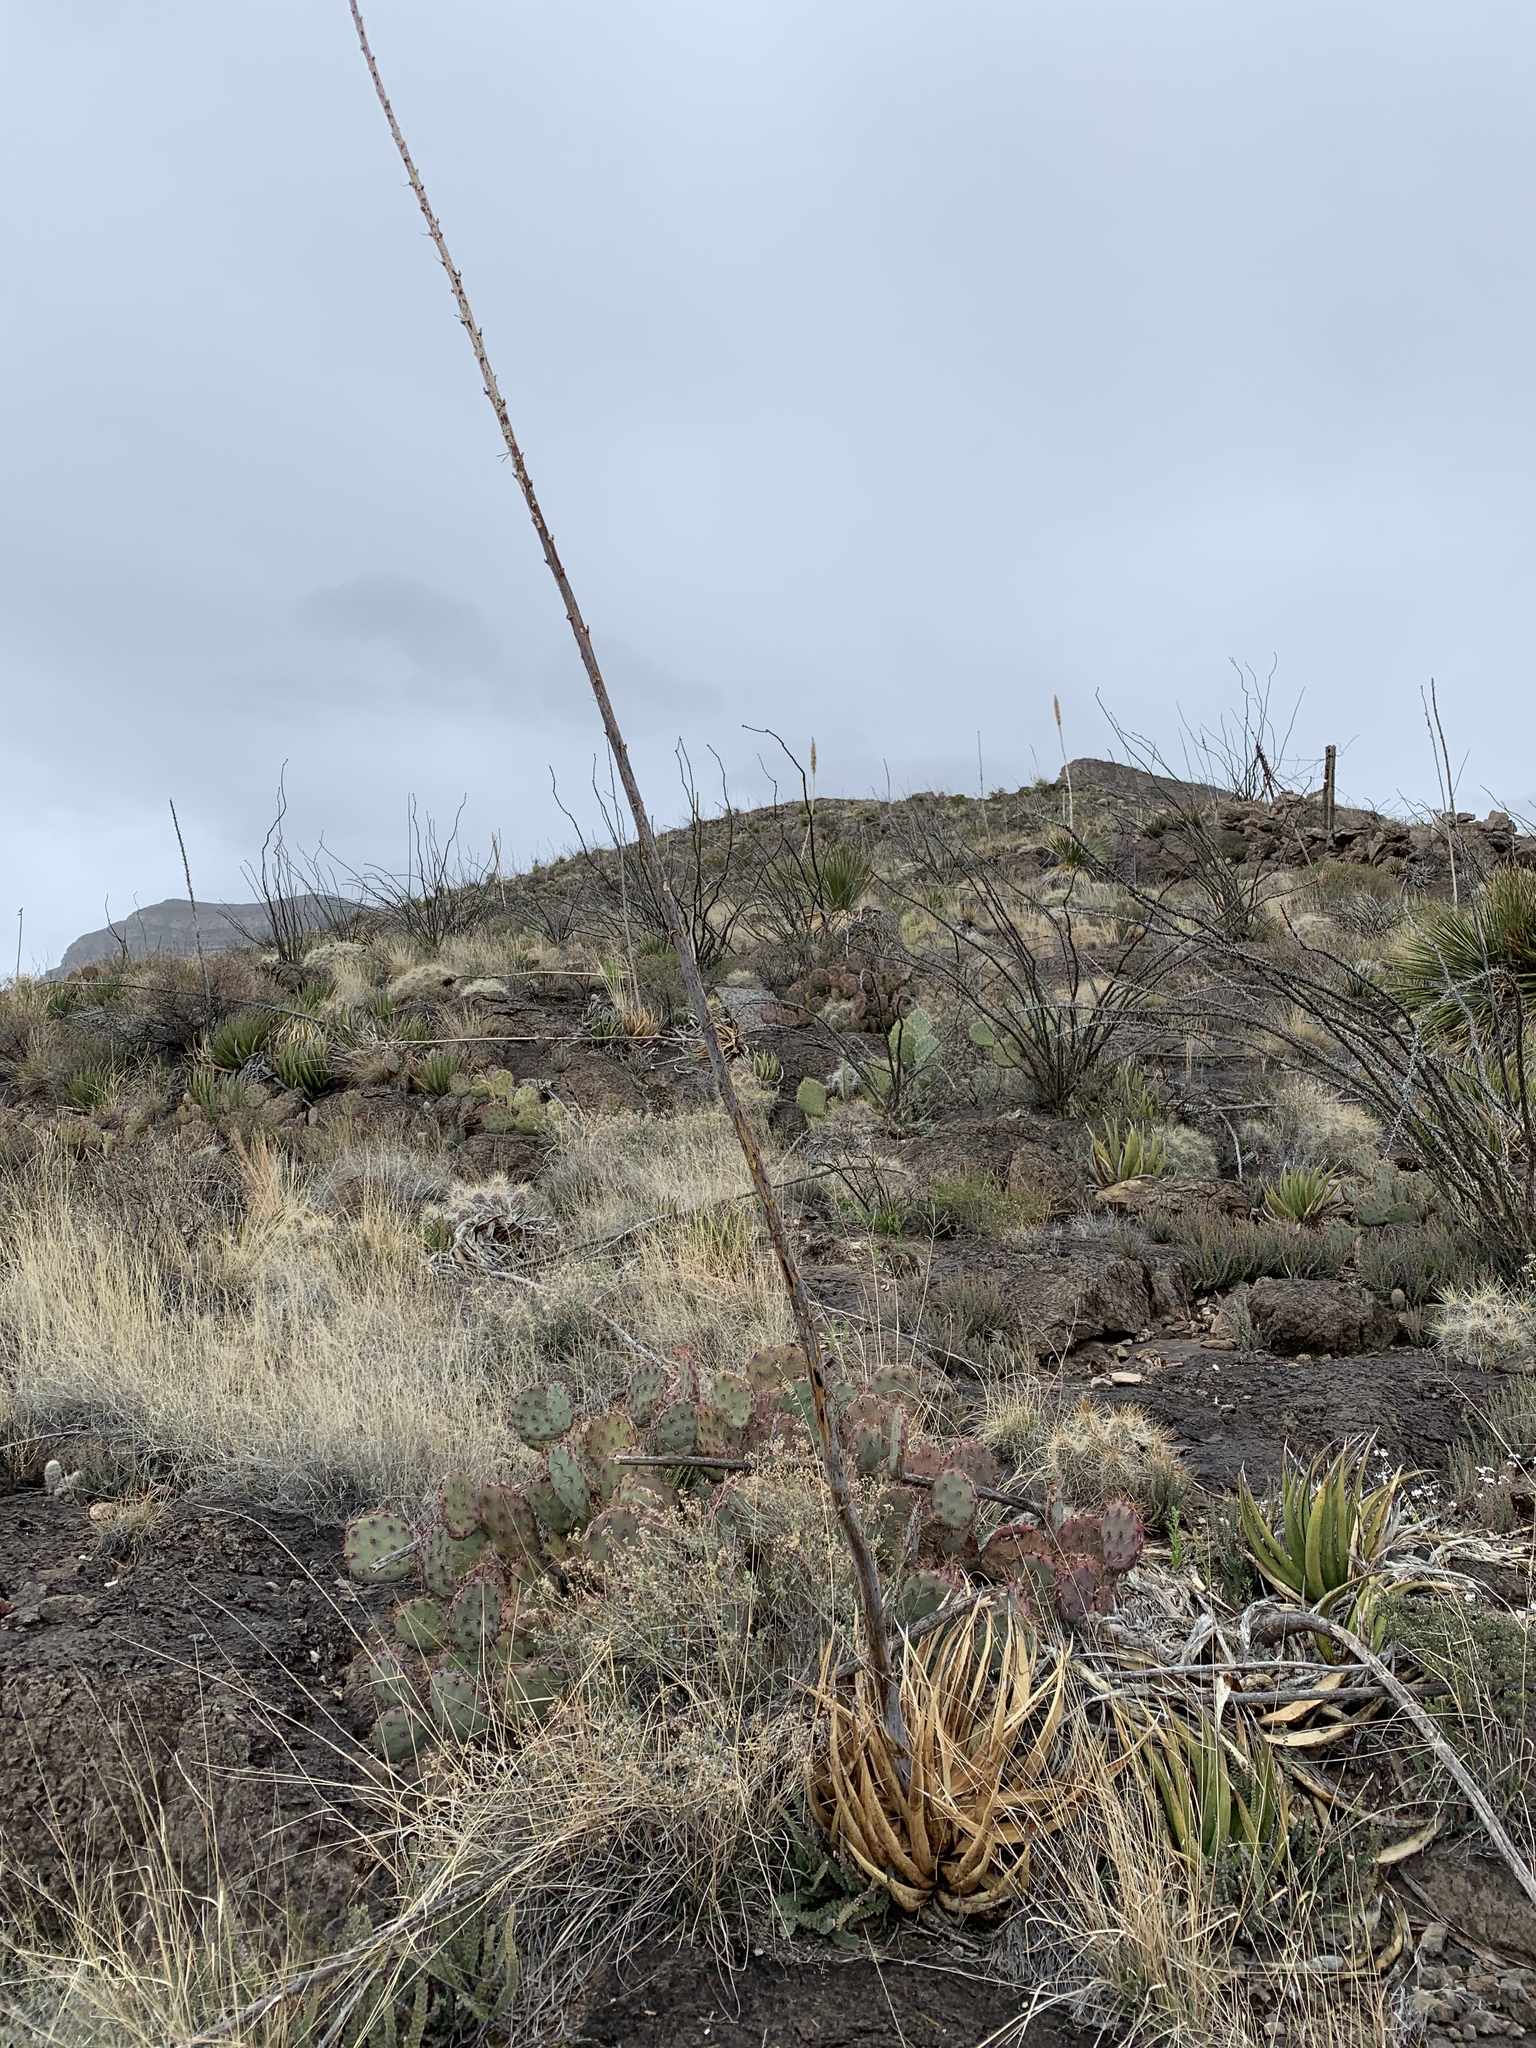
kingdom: Plantae
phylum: Tracheophyta
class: Liliopsida
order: Asparagales
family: Asparagaceae
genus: Agave
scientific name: Agave lechuguilla
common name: Lecheguilla agave
